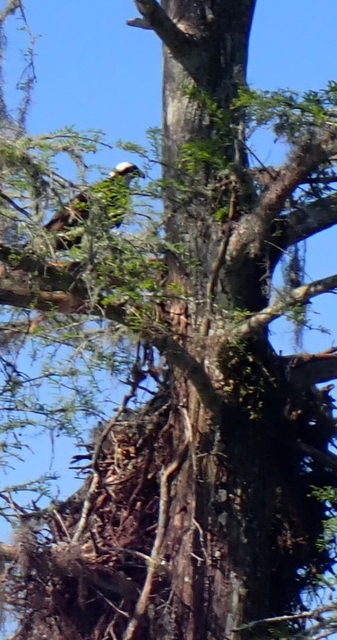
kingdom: Animalia
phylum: Chordata
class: Aves
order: Accipitriformes
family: Pandionidae
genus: Pandion
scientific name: Pandion haliaetus
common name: Osprey
